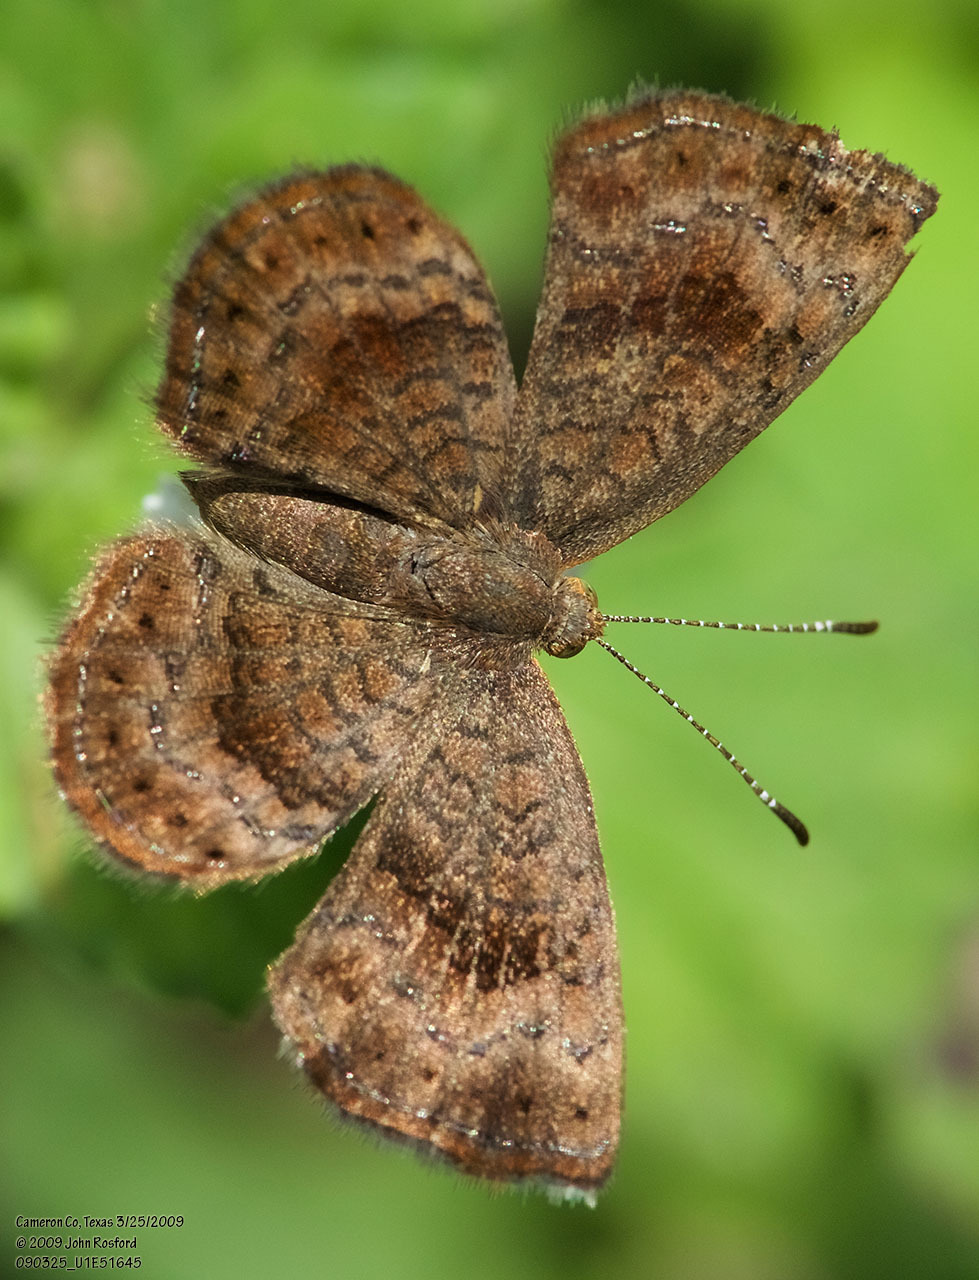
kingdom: Animalia
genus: Calephelis
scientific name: Calephelis perditalis
